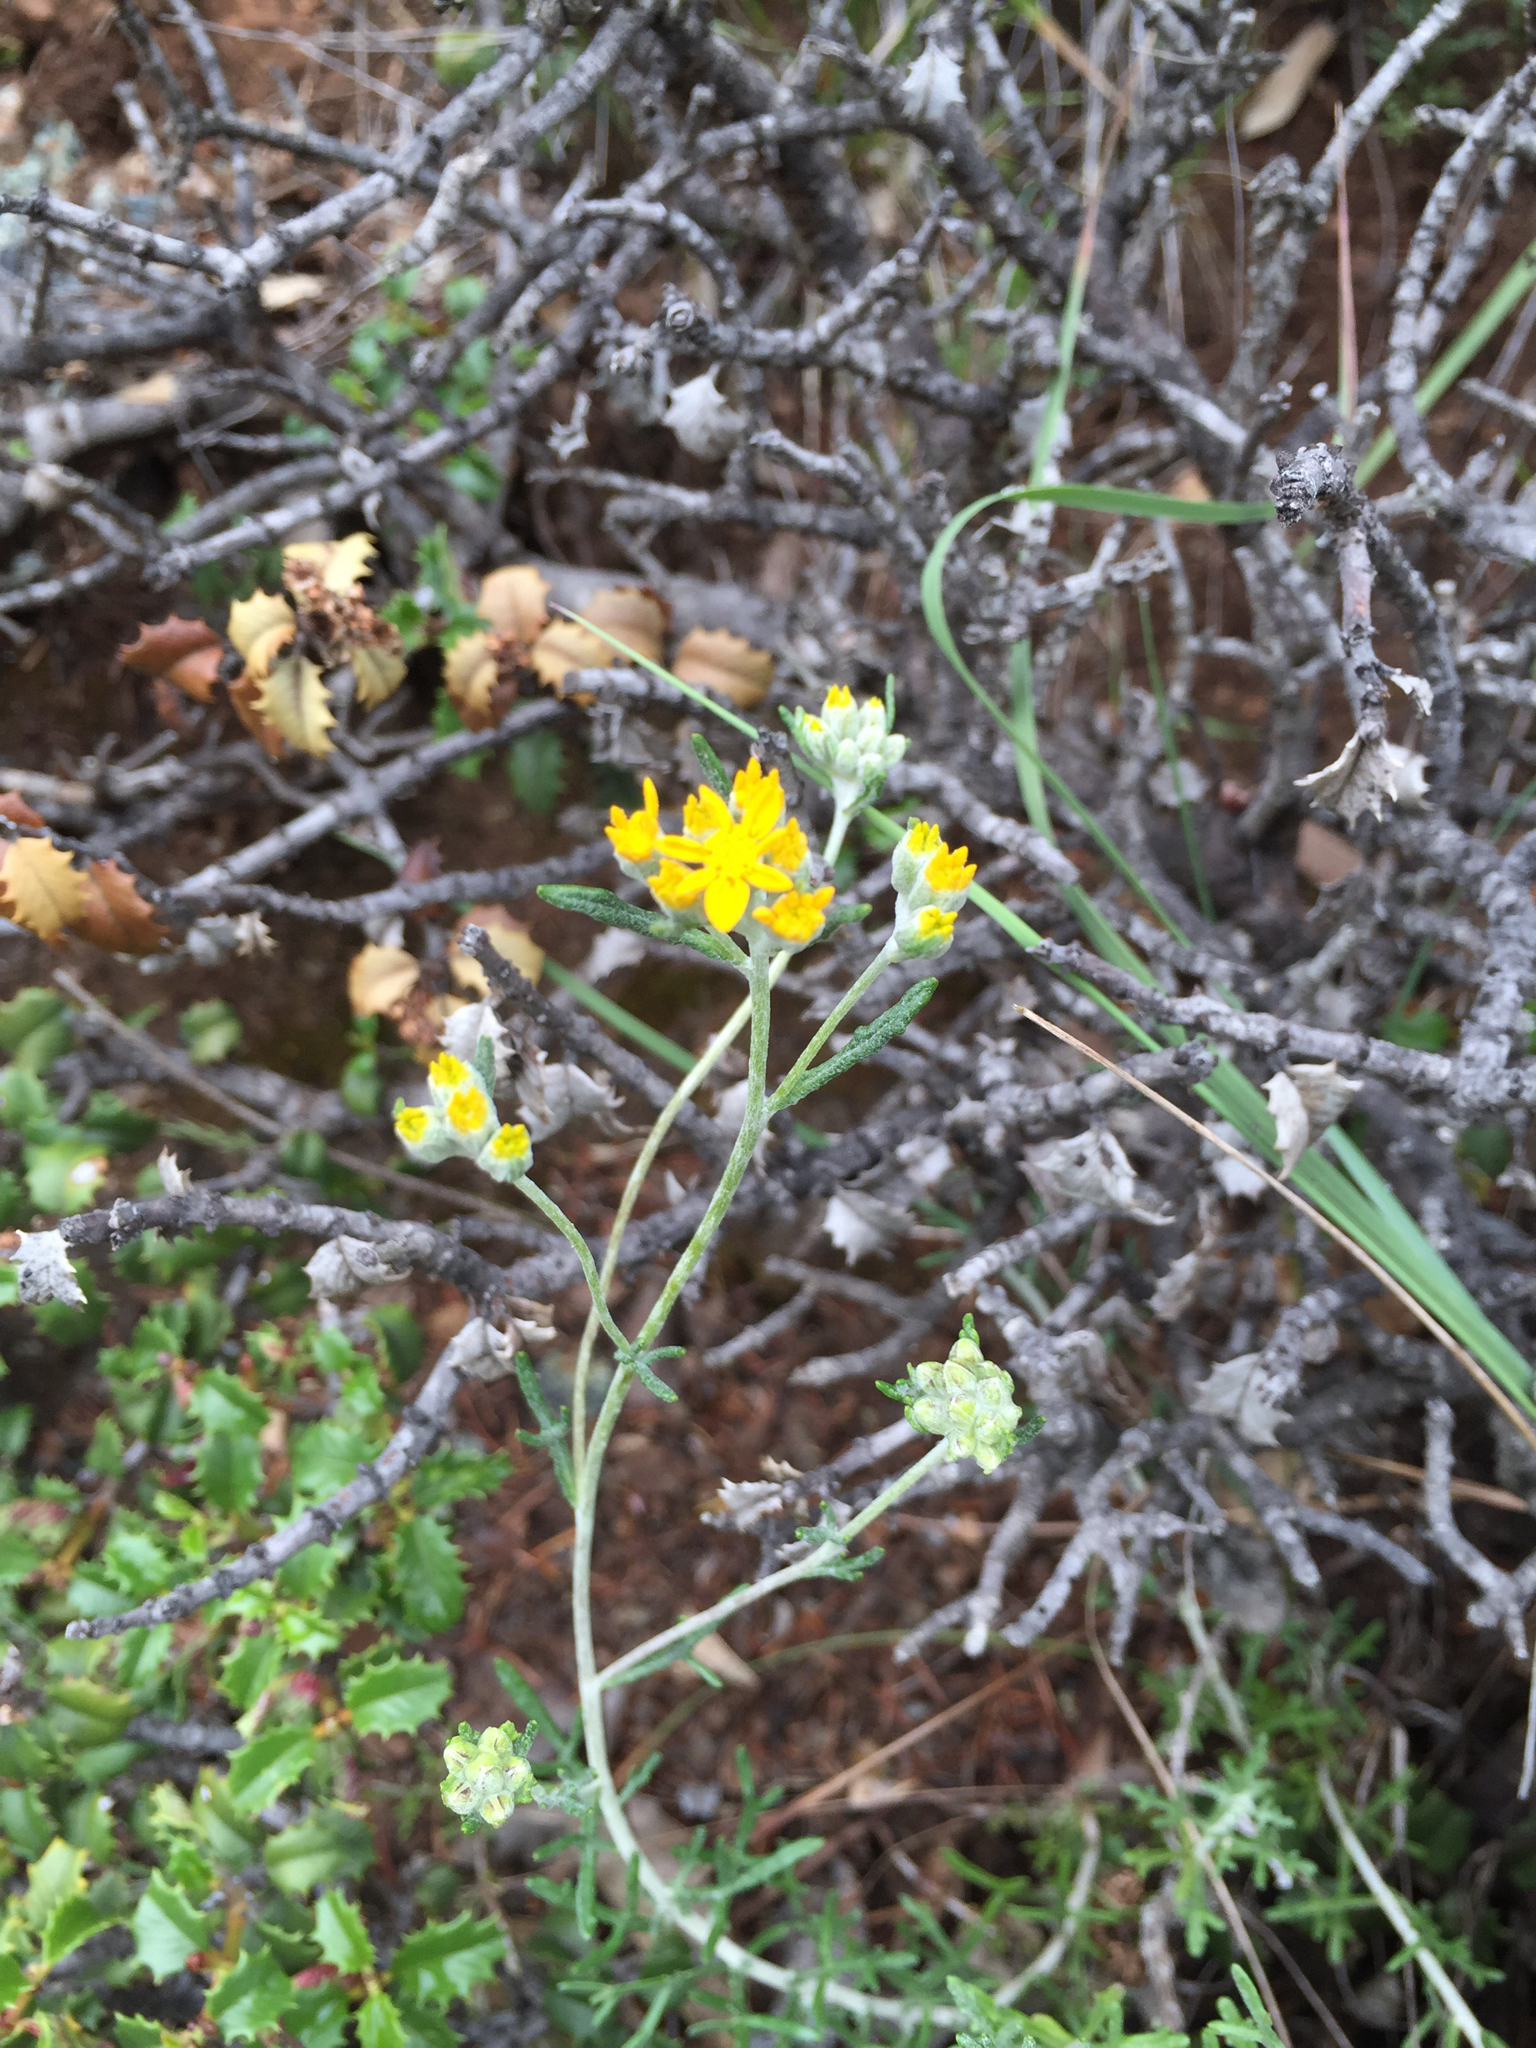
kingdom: Plantae
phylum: Tracheophyta
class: Magnoliopsida
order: Asterales
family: Asteraceae
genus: Eriophyllum
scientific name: Eriophyllum confertiflorum
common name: Golden-yarrow
